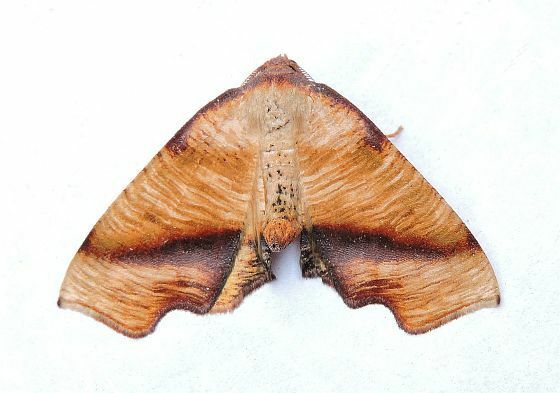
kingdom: Animalia
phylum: Arthropoda
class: Insecta
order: Lepidoptera
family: Geometridae
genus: Plagodis
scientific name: Plagodis fervidaria
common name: Fervid plagodis
